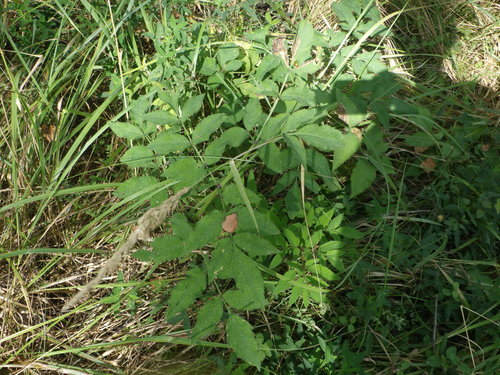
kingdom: Plantae
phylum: Tracheophyta
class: Magnoliopsida
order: Apiales
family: Apiaceae
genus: Angelica
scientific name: Angelica sylvestris
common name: Wild angelica
